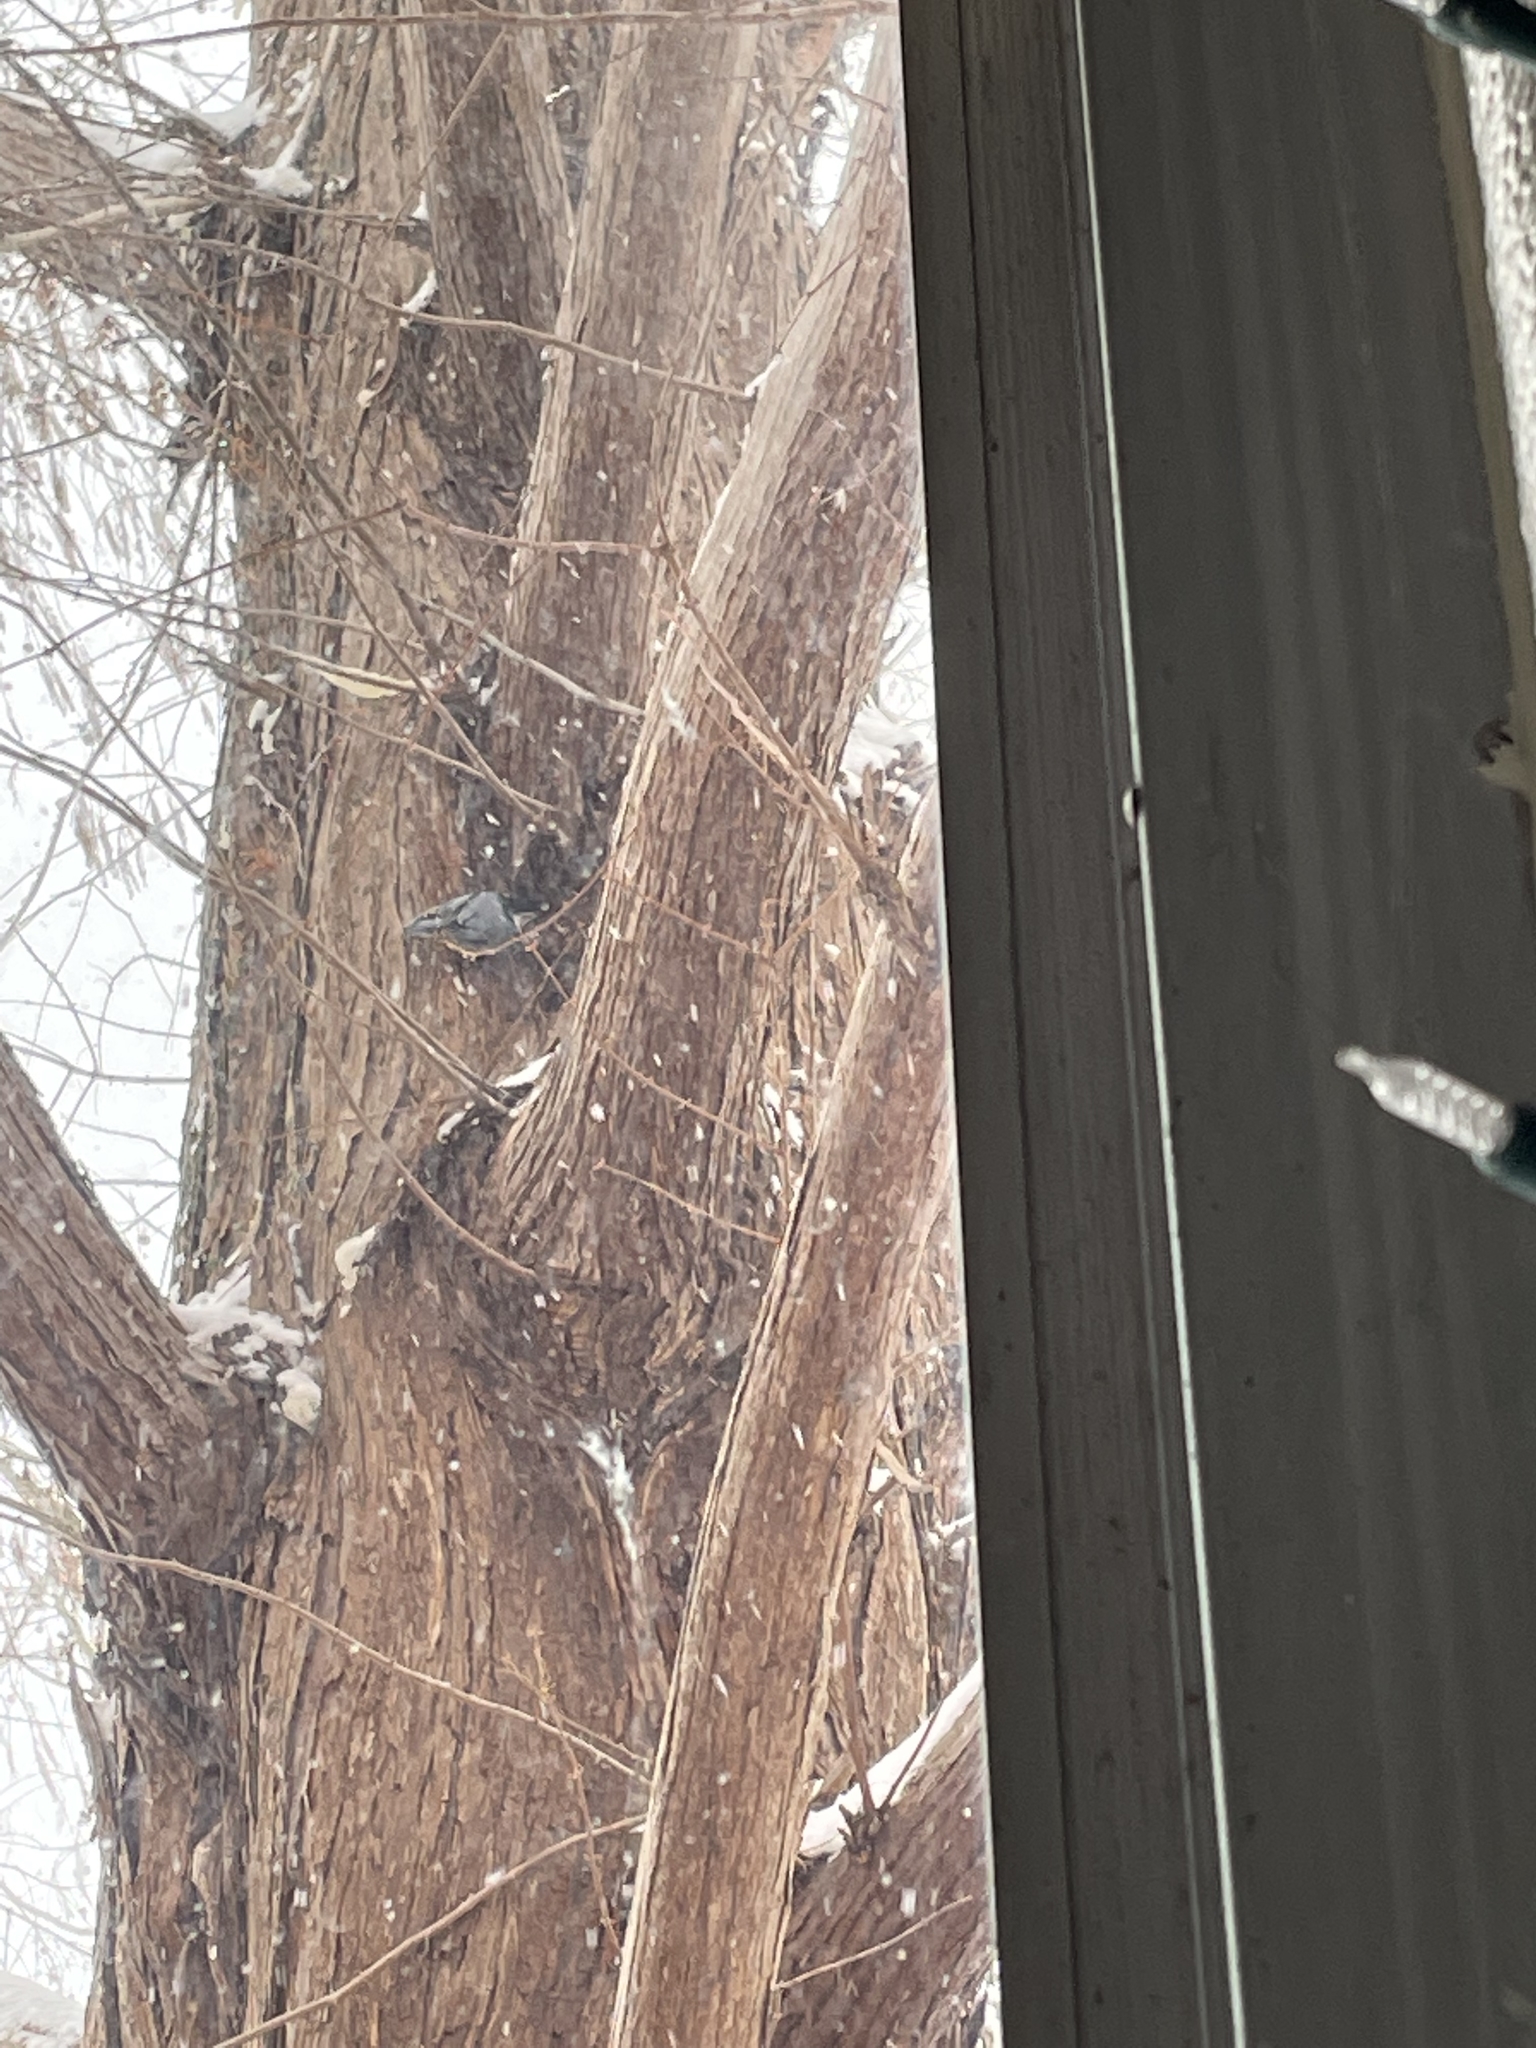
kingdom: Animalia
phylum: Chordata
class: Aves
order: Passeriformes
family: Sittidae
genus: Sitta
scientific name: Sitta carolinensis
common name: White-breasted nuthatch
